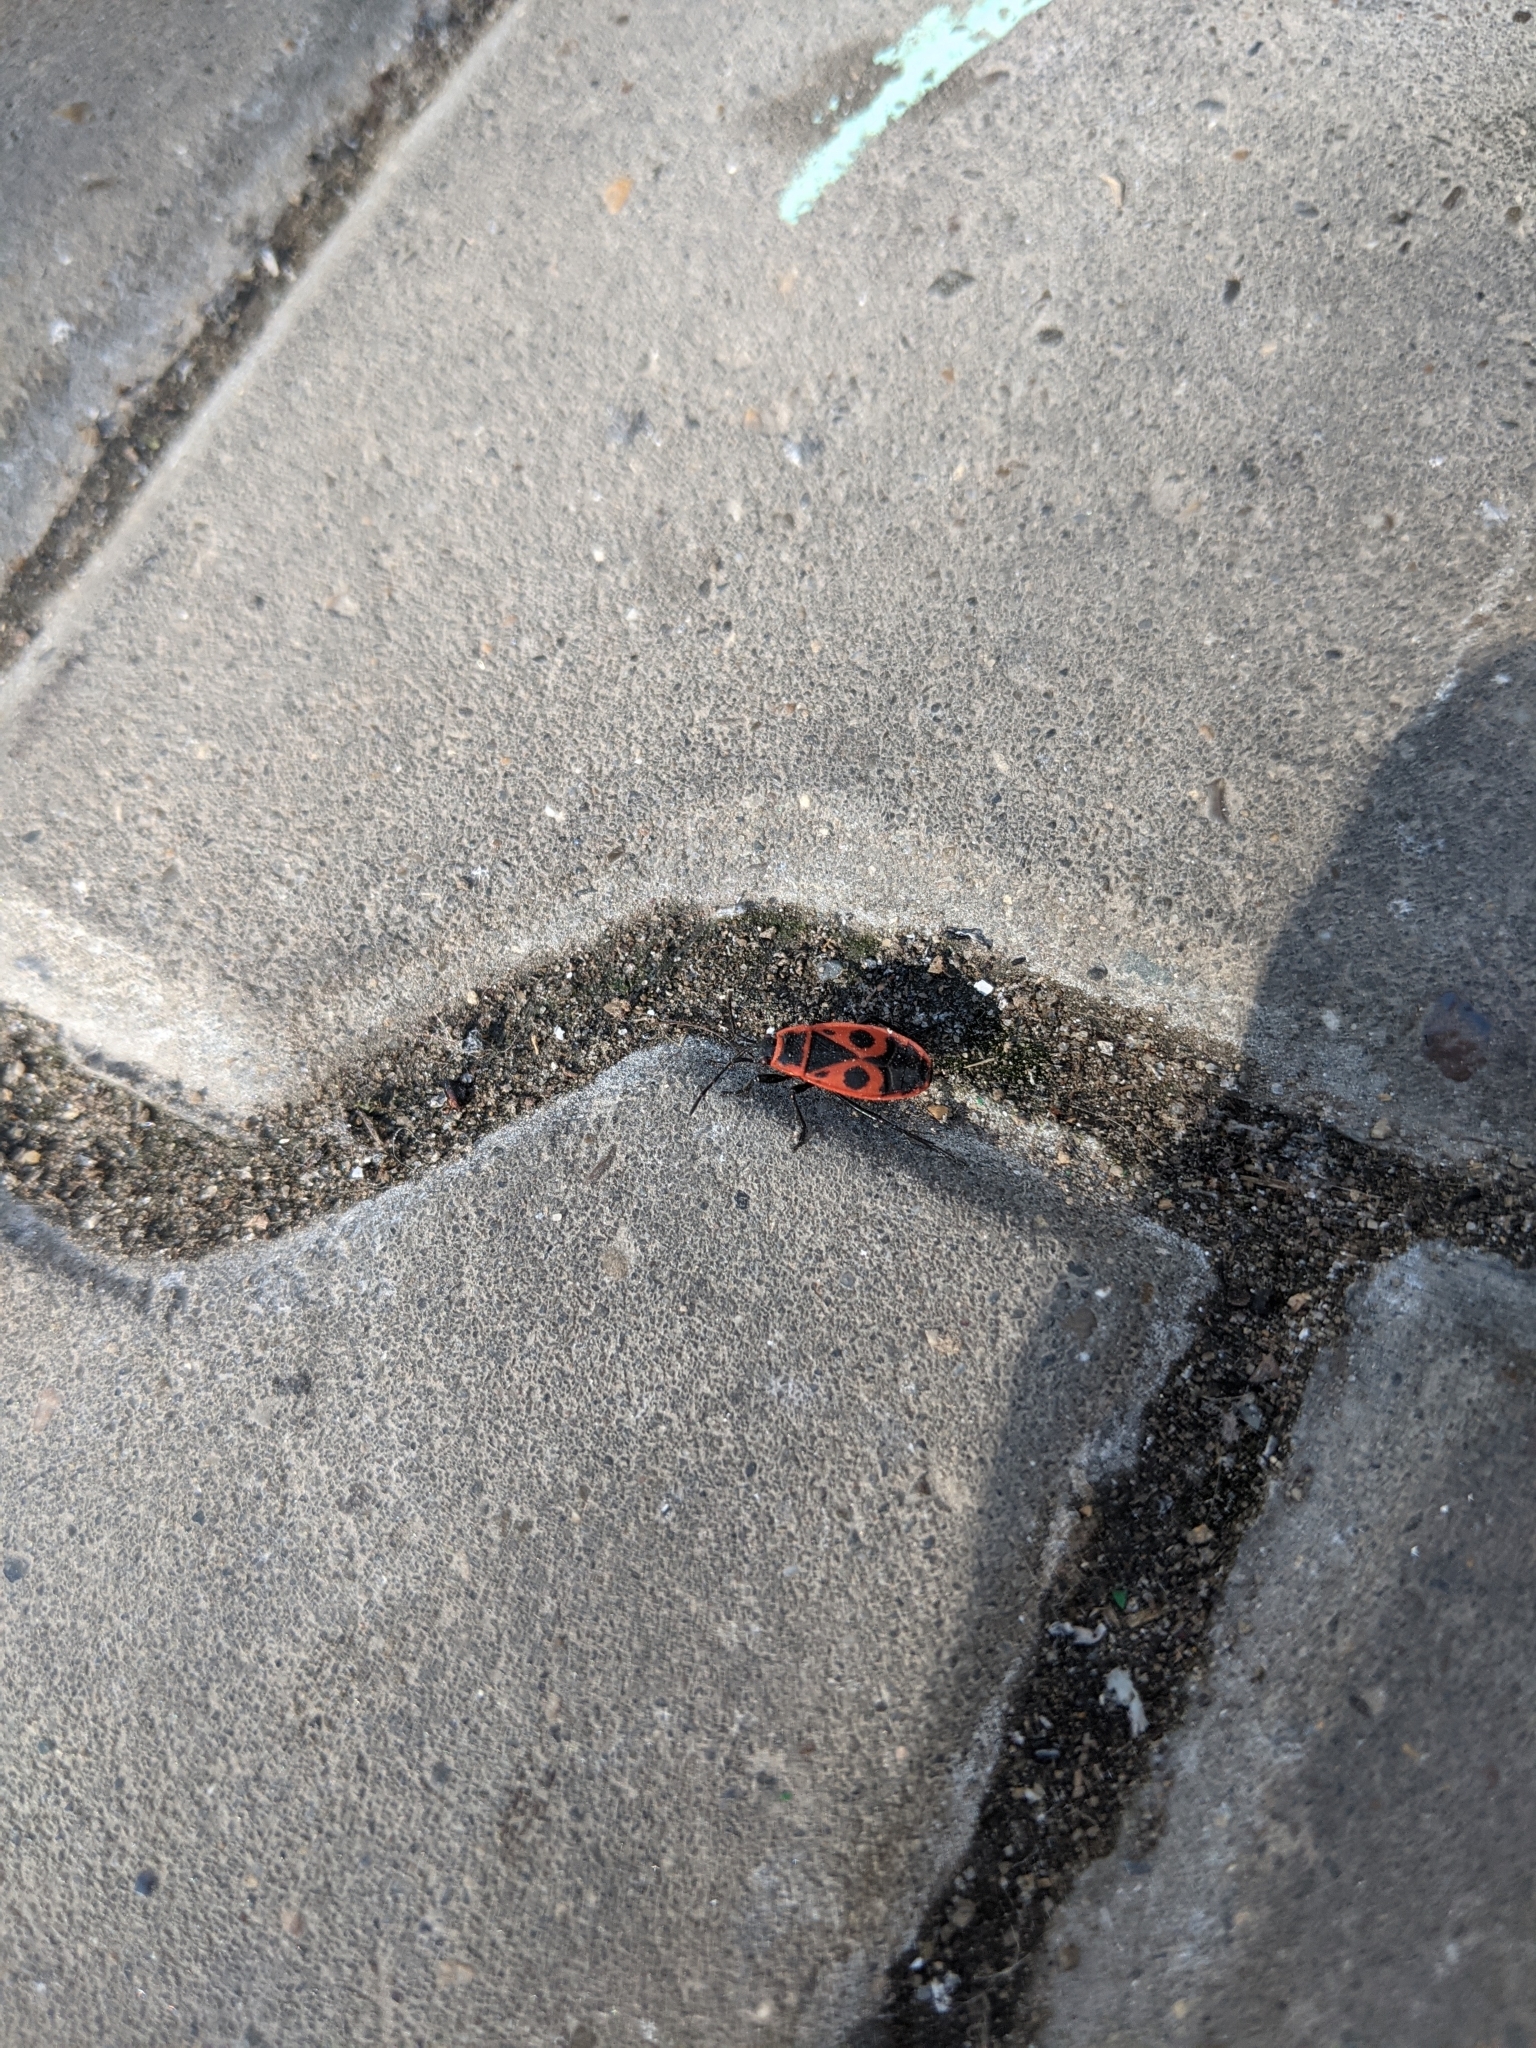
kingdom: Animalia
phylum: Arthropoda
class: Insecta
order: Hemiptera
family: Pyrrhocoridae
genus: Pyrrhocoris
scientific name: Pyrrhocoris apterus
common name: Firebug
